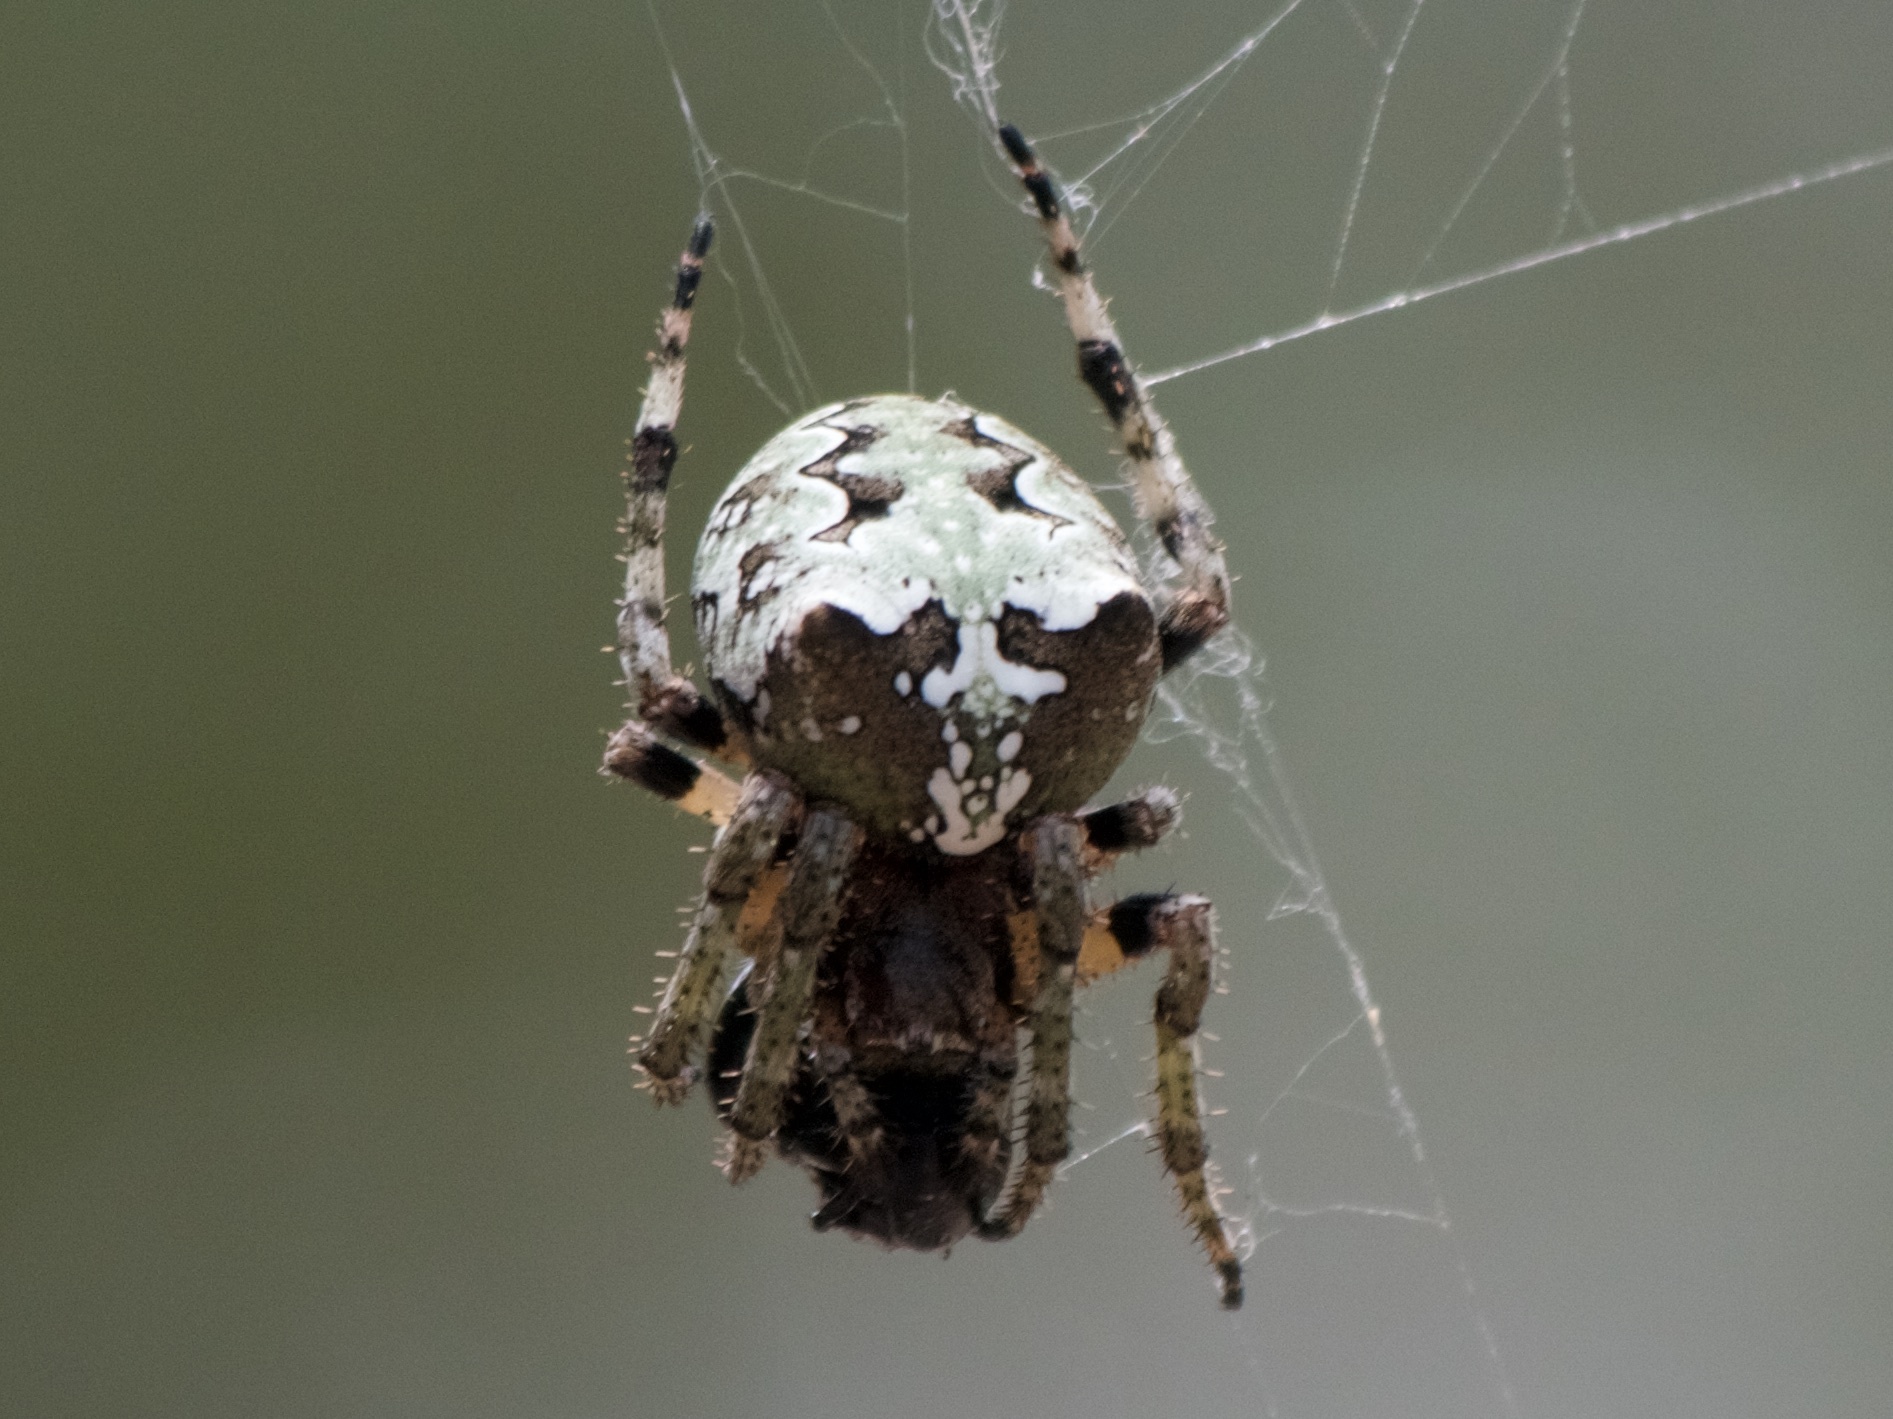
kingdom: Animalia
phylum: Arthropoda
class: Arachnida
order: Araneae
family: Araneidae
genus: Araneus
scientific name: Araneus bicentenarius
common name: Giant lichen orbweaver
